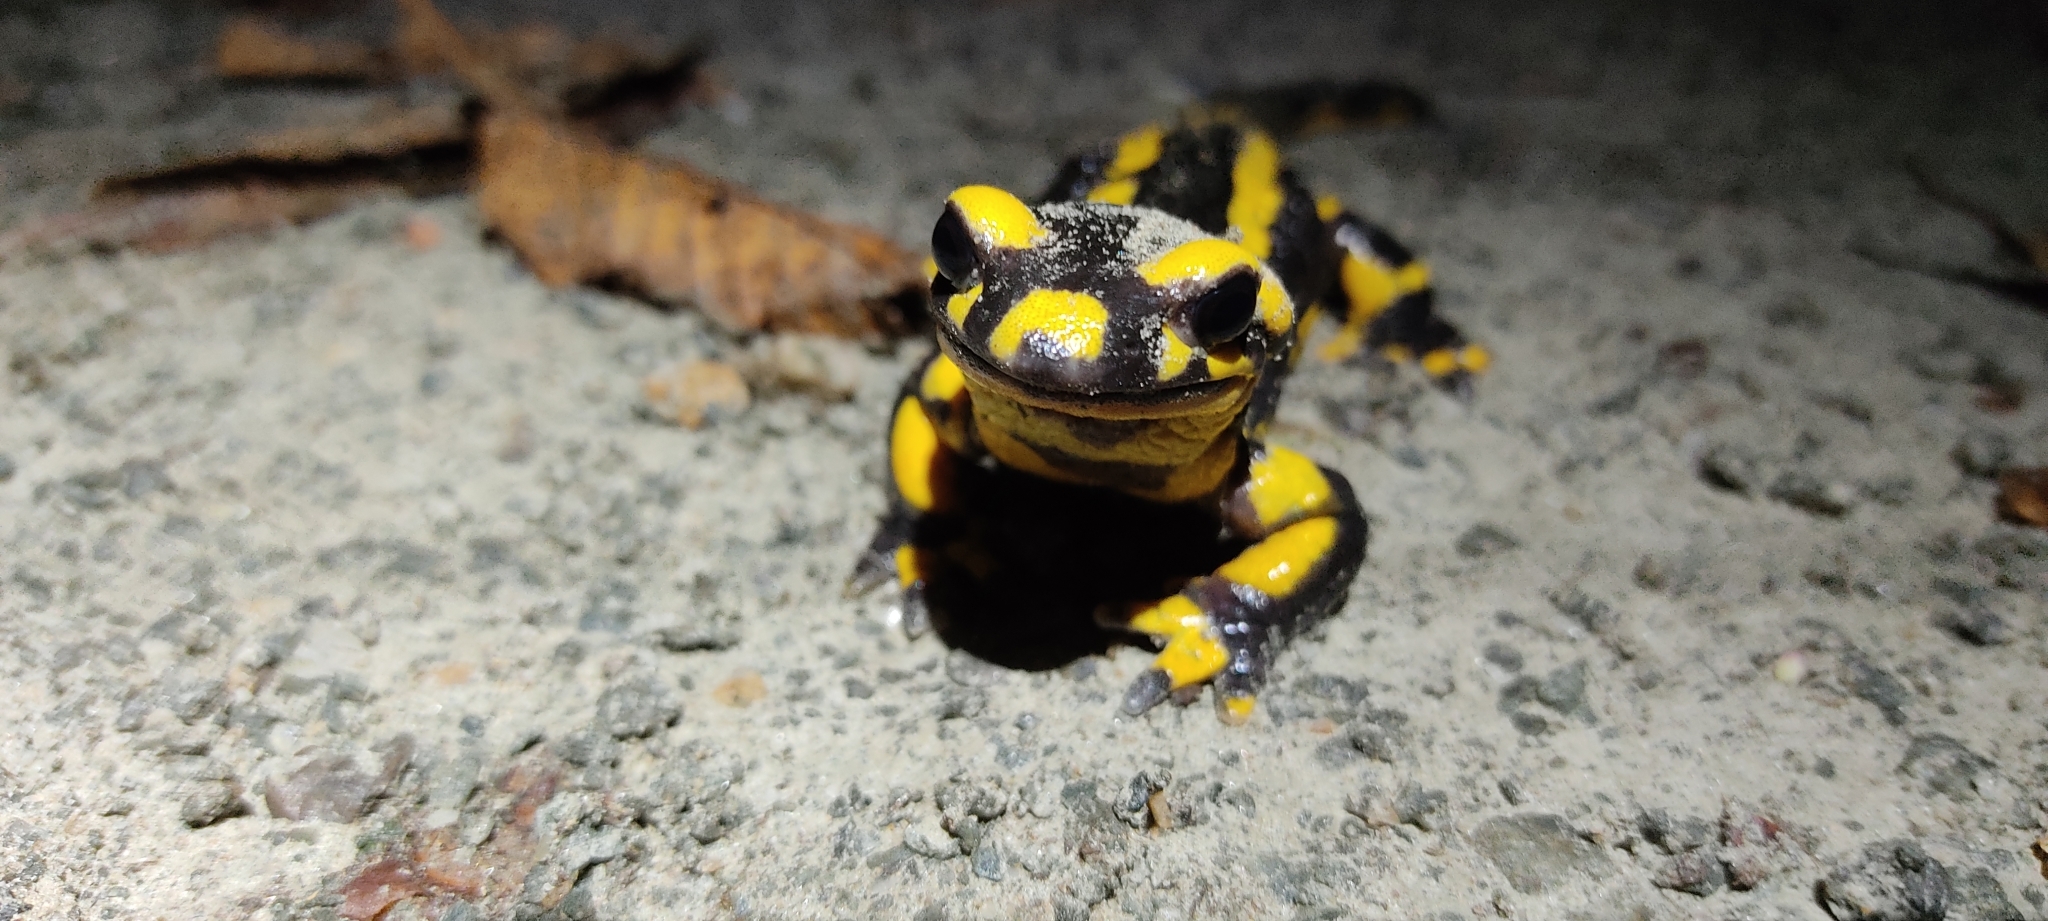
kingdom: Animalia
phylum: Chordata
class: Amphibia
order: Caudata
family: Salamandridae
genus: Salamandra
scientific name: Salamandra salamandra
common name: Fire salamander
